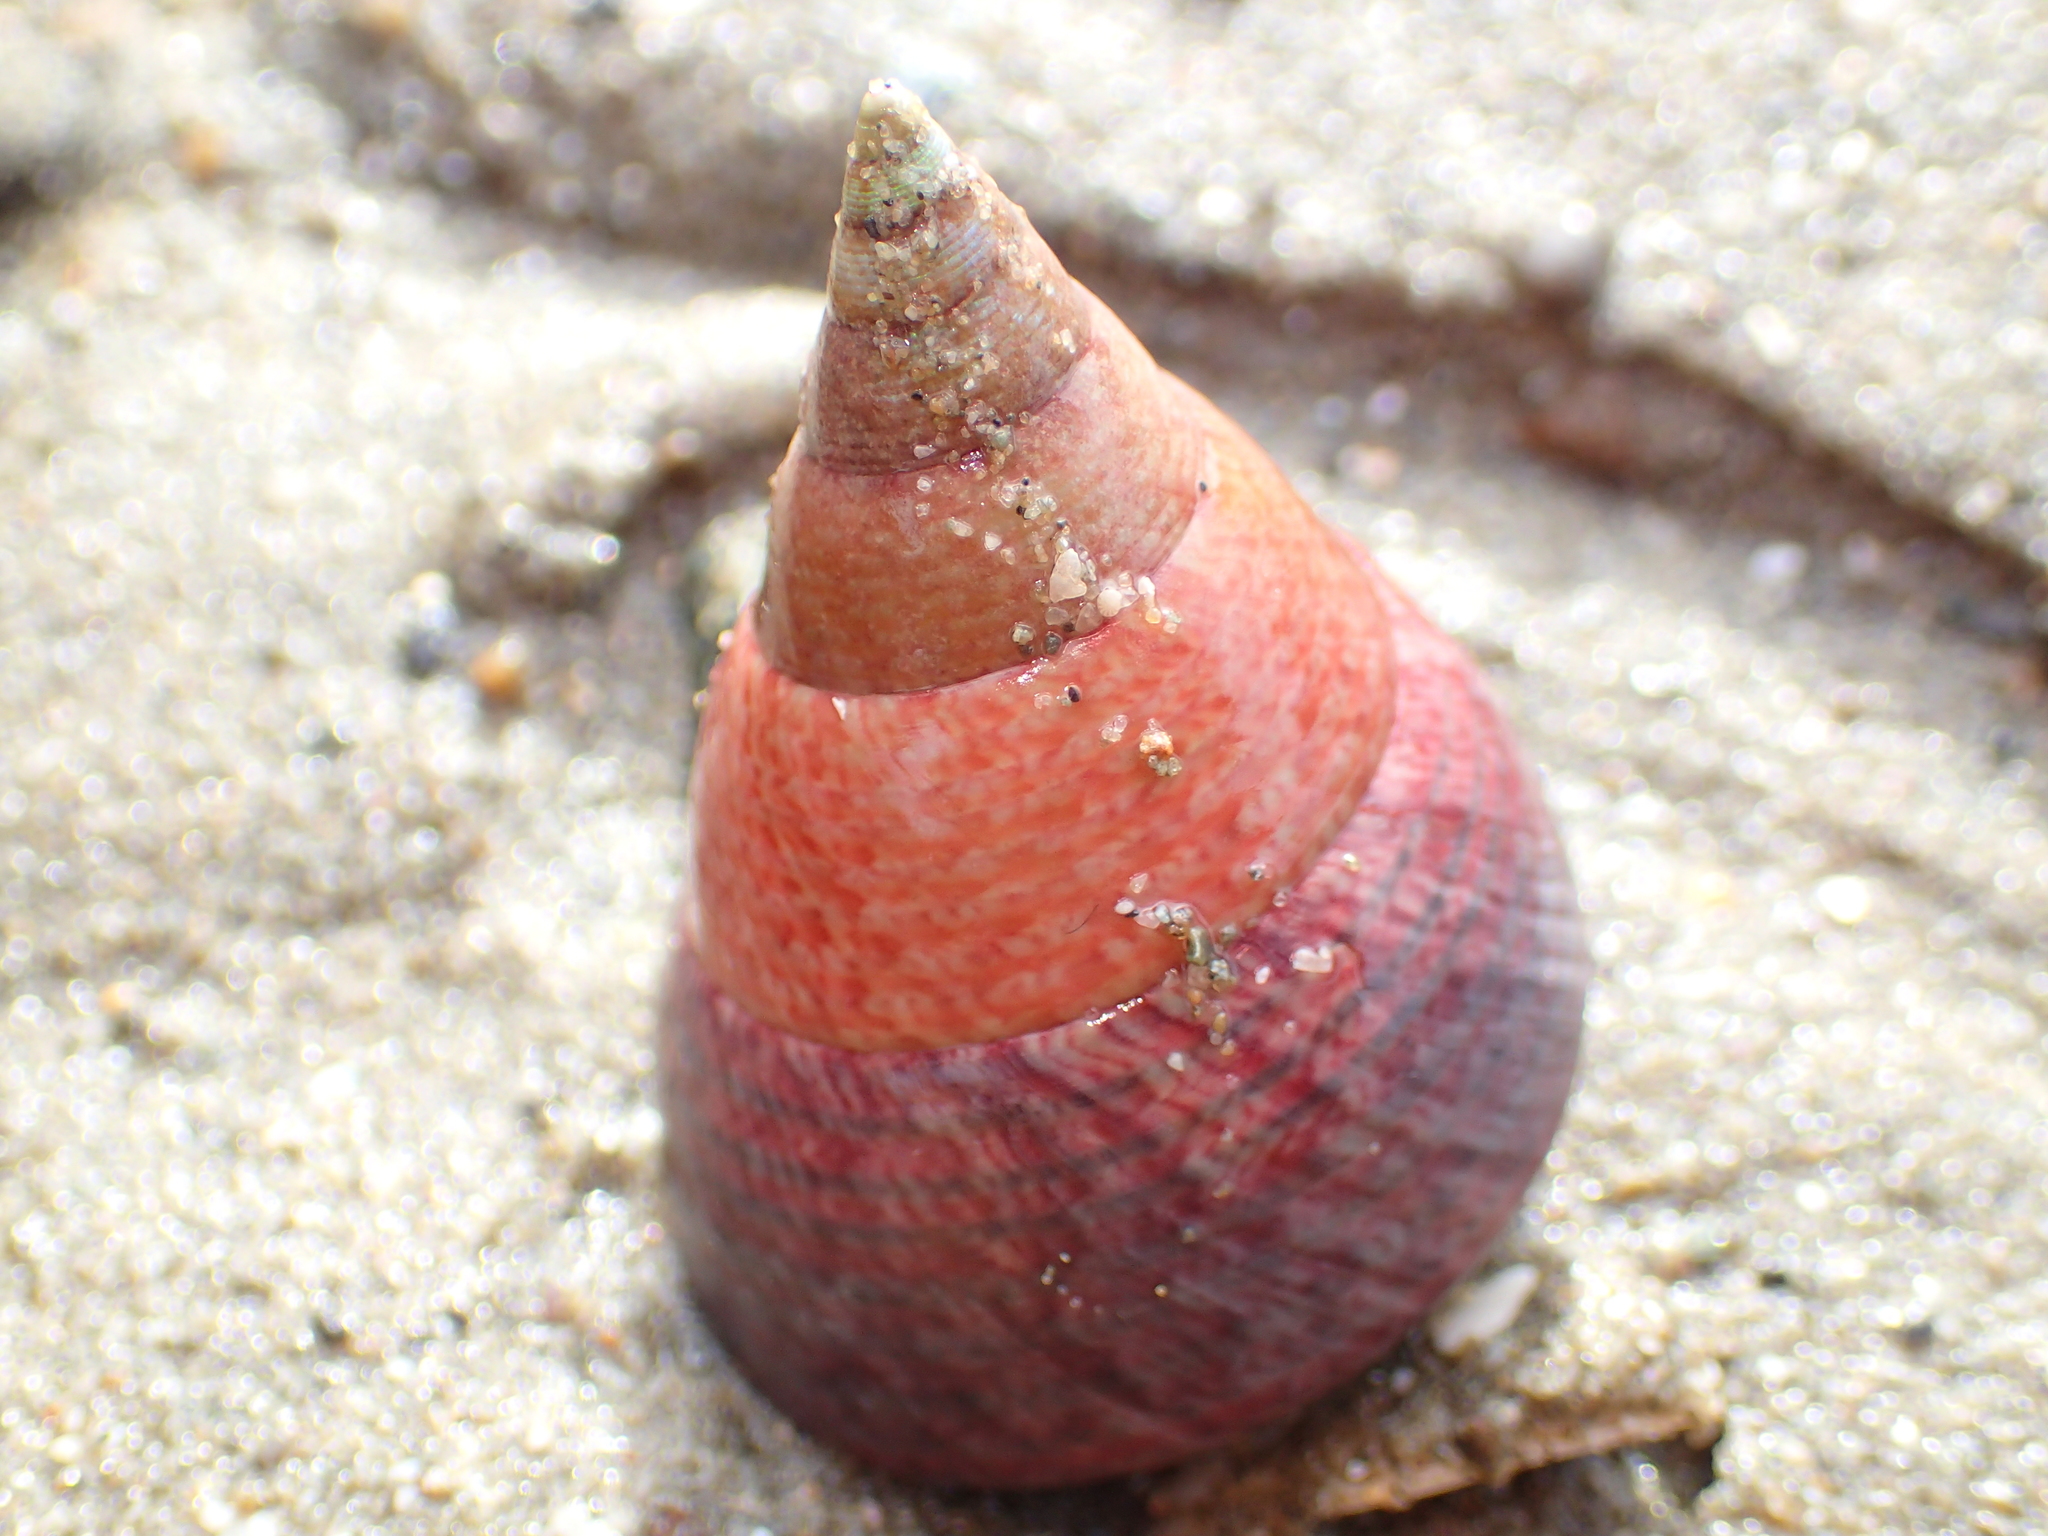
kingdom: Animalia
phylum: Mollusca
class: Gastropoda
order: Trochida
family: Trochidae
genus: Cantharidus
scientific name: Cantharidus opalus
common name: Opal jewel topsnail
